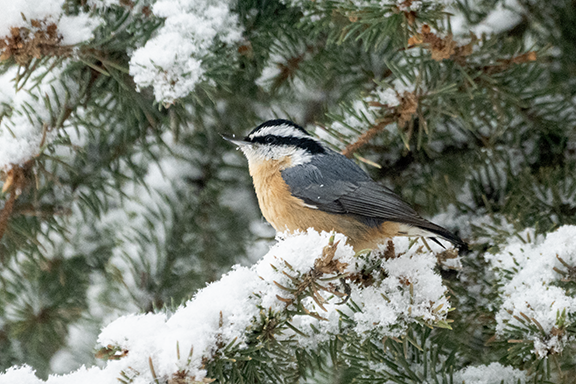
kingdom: Animalia
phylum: Chordata
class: Aves
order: Passeriformes
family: Sittidae
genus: Sitta
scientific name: Sitta canadensis
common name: Red-breasted nuthatch
